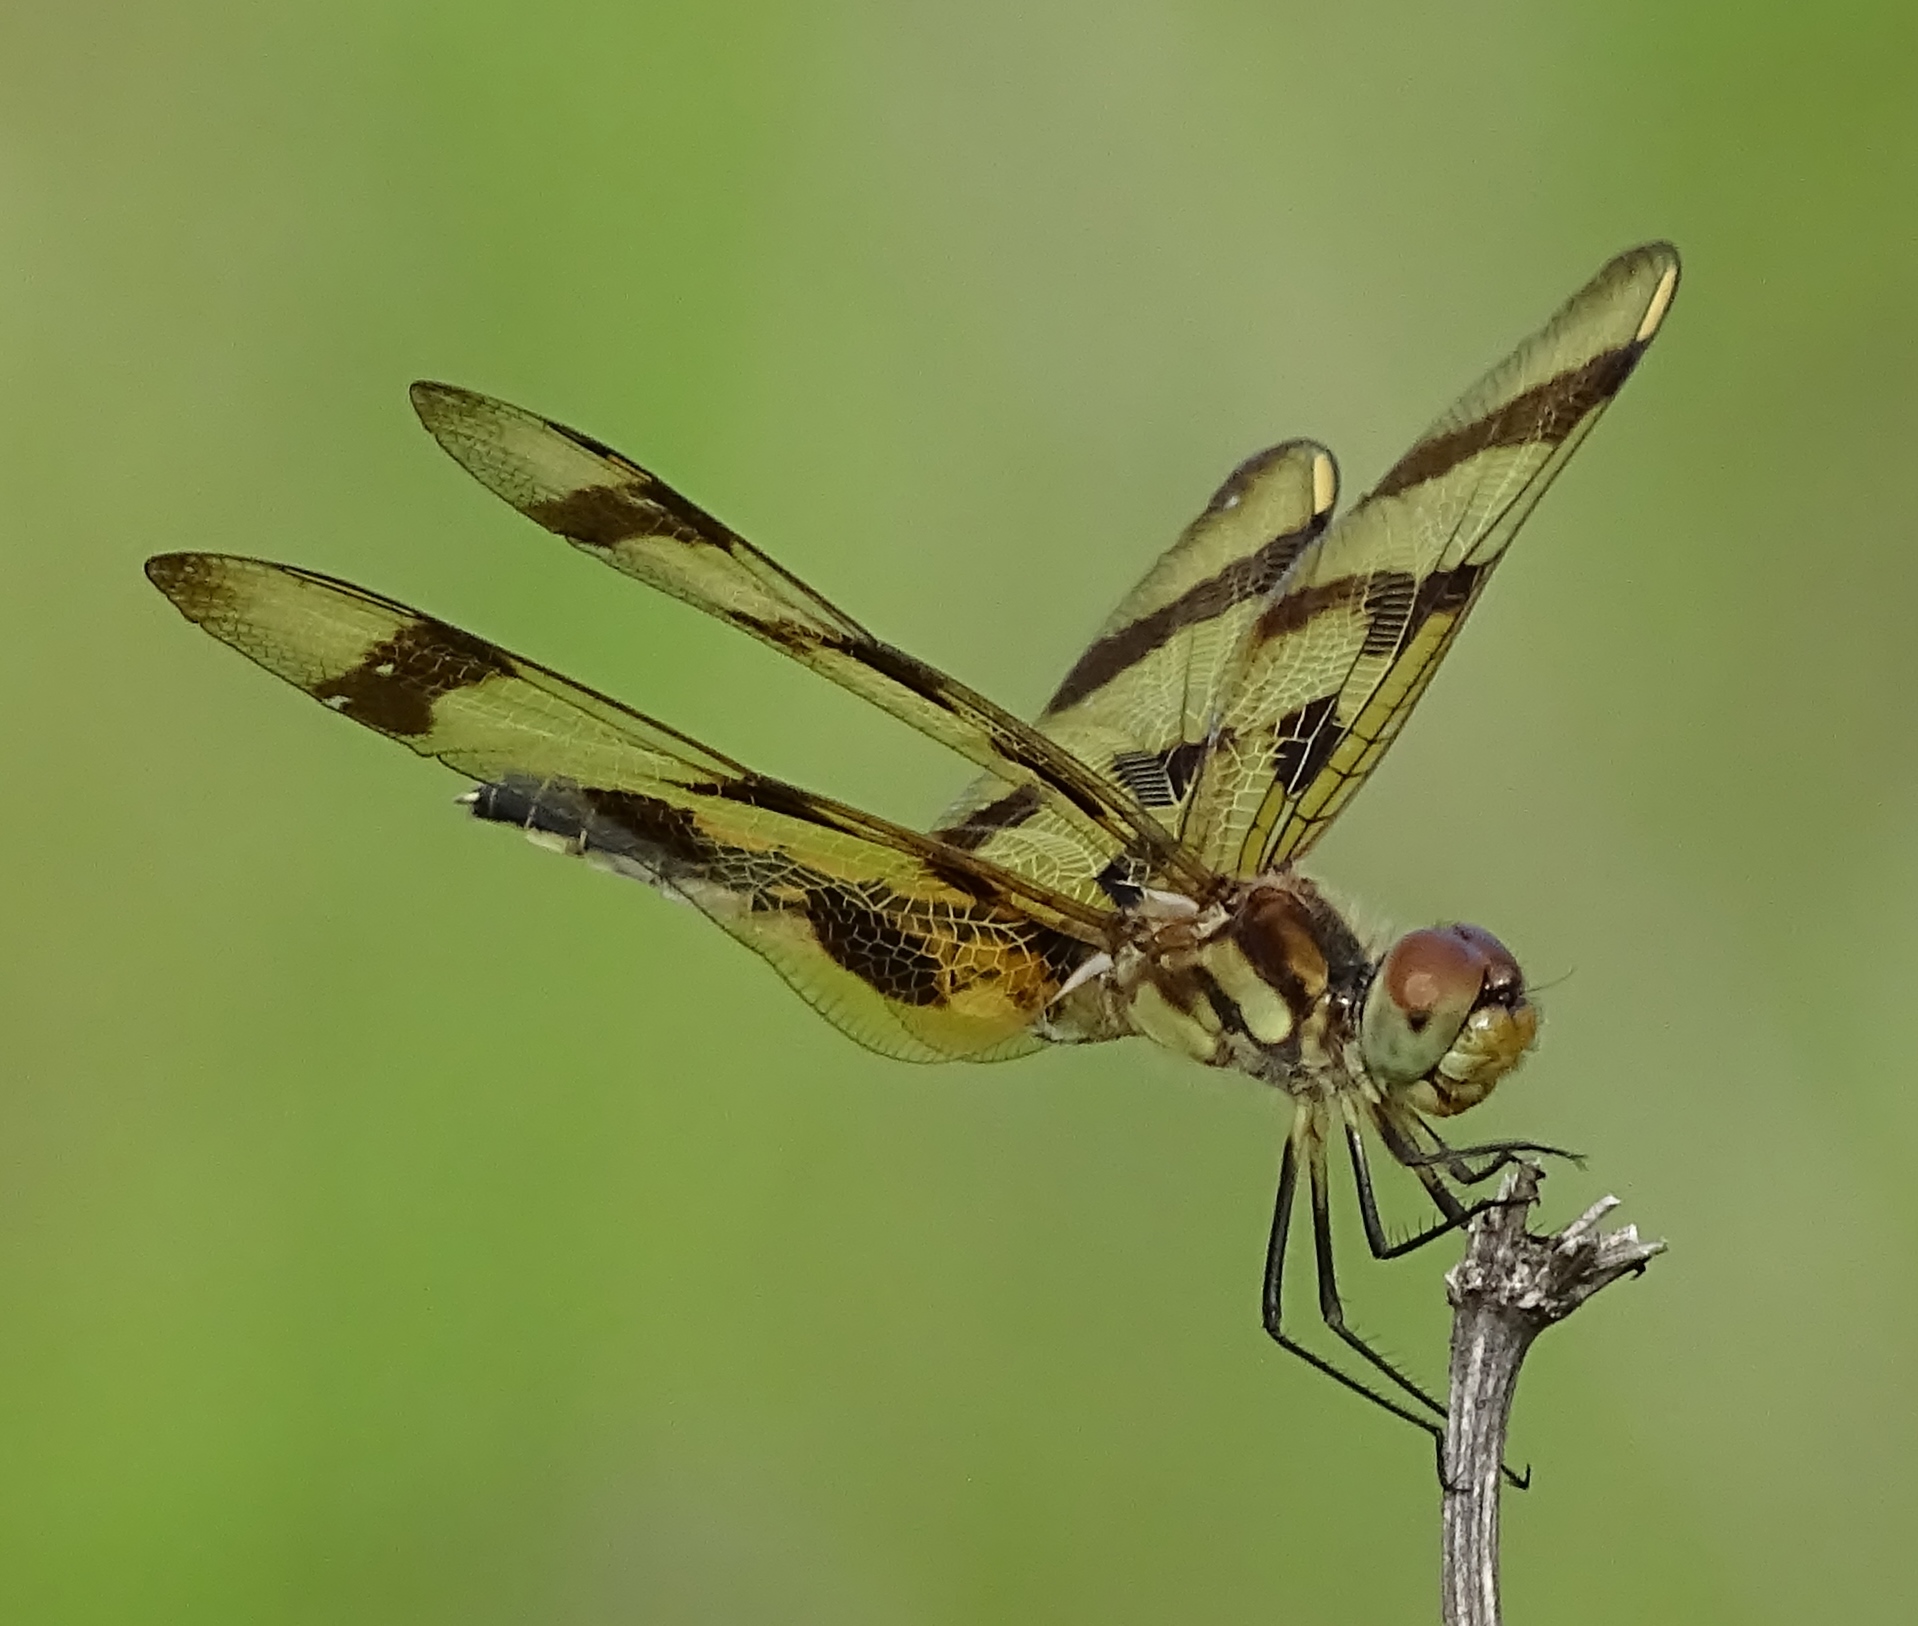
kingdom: Animalia
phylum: Arthropoda
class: Insecta
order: Odonata
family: Libellulidae
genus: Celithemis
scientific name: Celithemis eponina
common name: Halloween pennant
